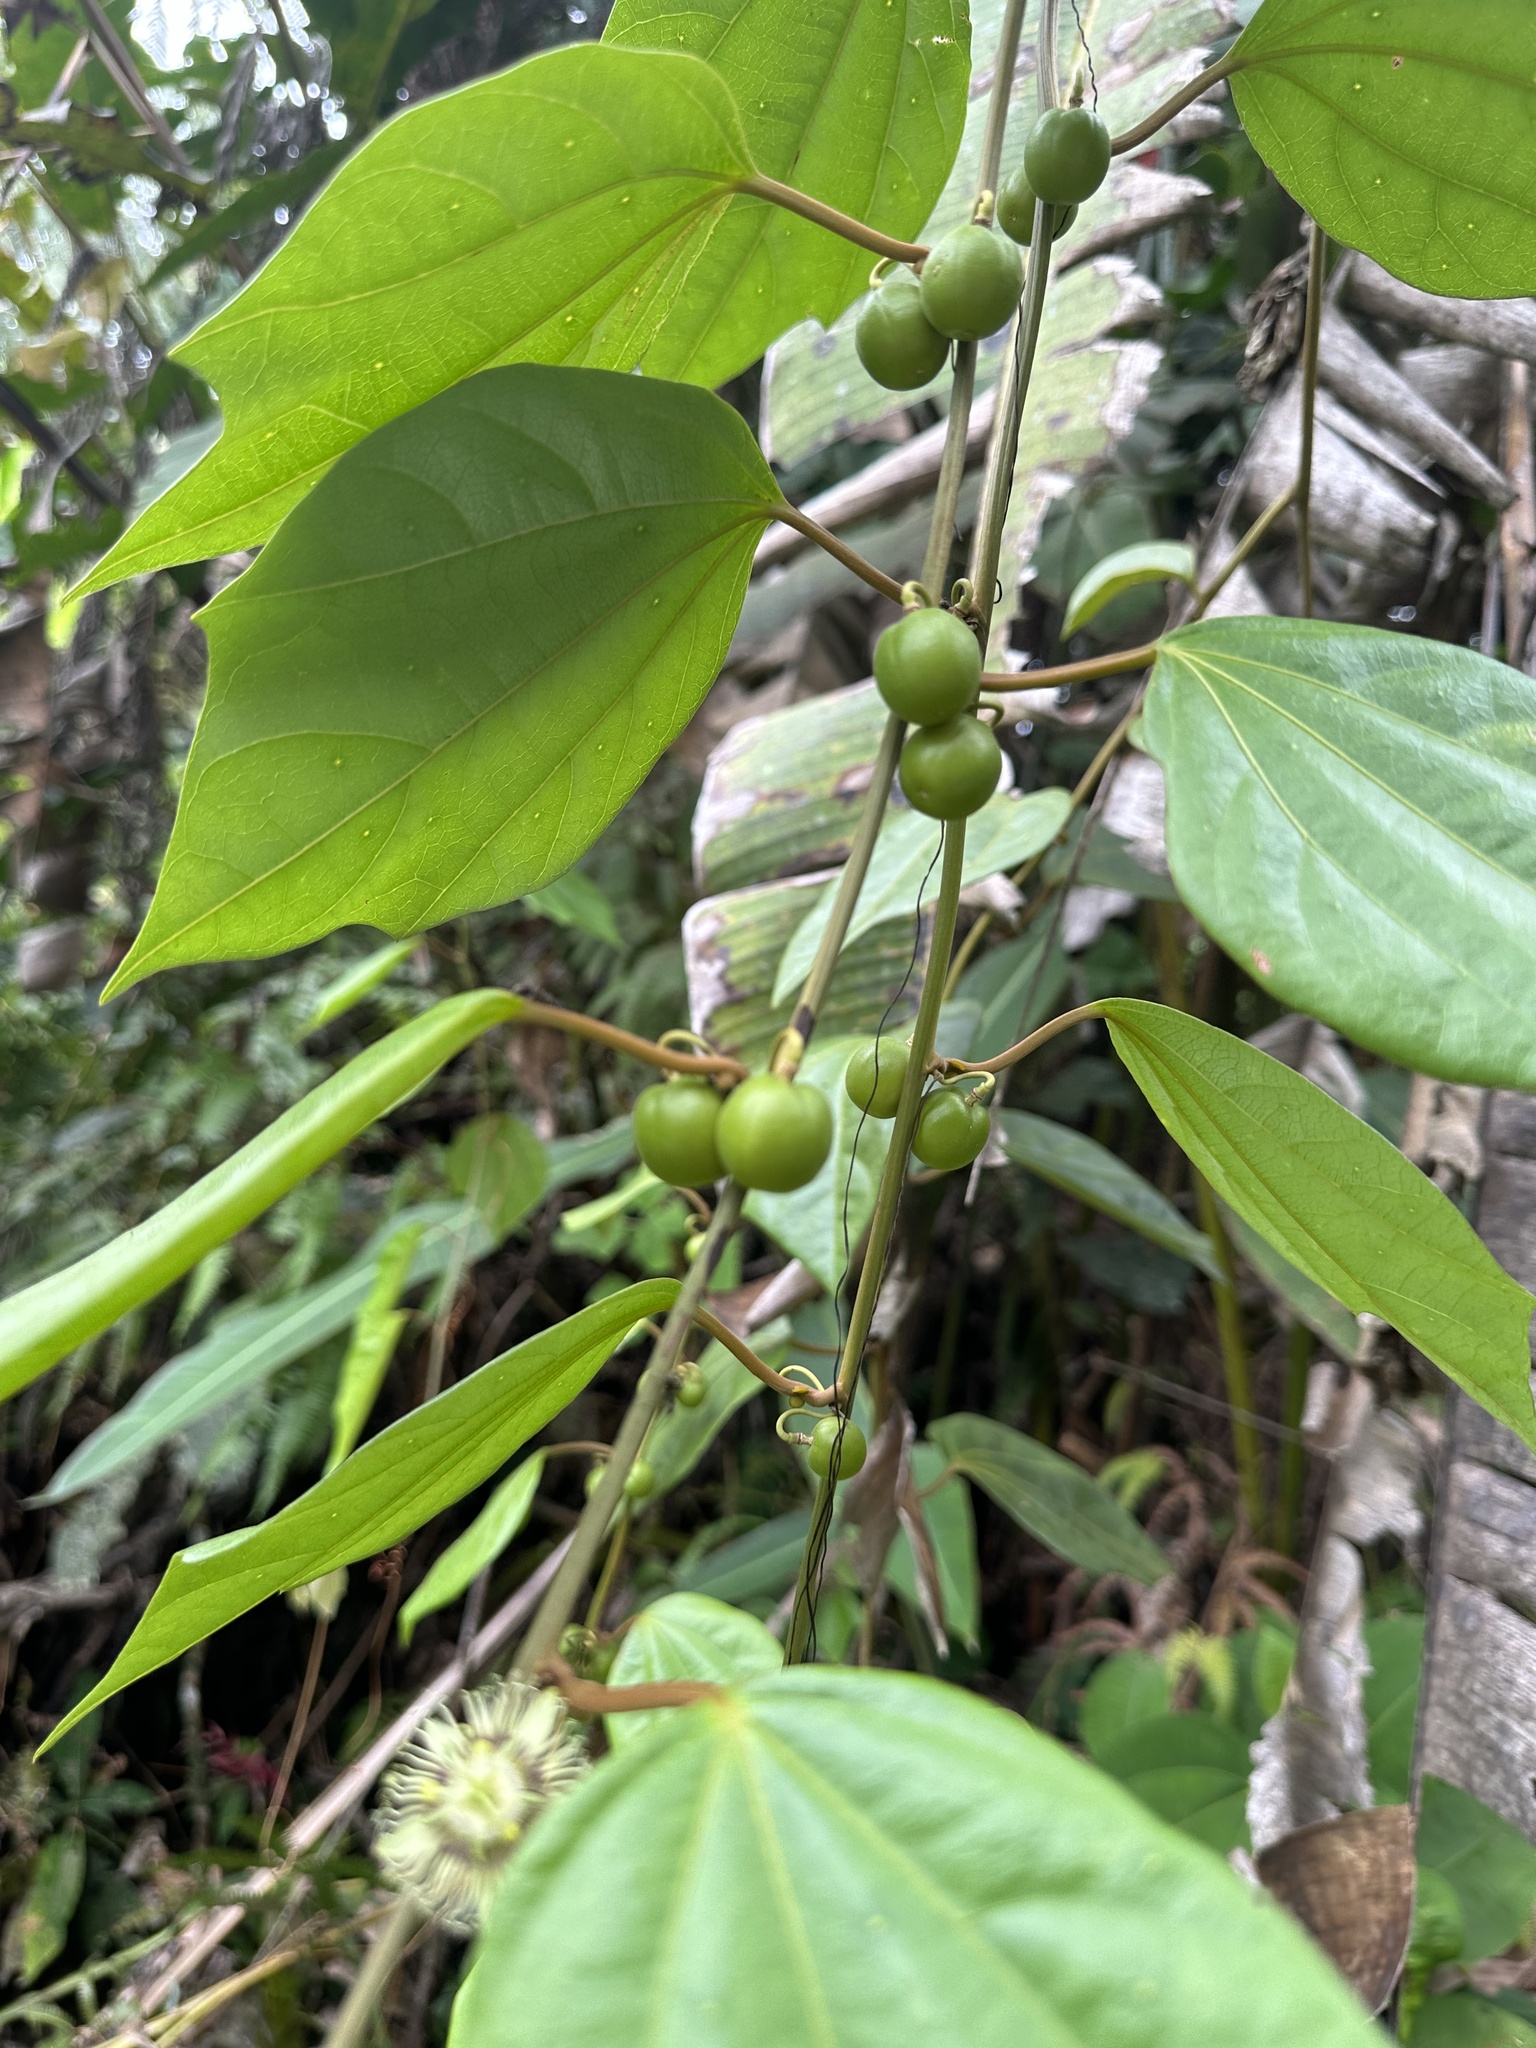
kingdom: Plantae
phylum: Tracheophyta
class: Magnoliopsida
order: Malpighiales
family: Passifloraceae
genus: Passiflora
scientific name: Passiflora ferruginea
